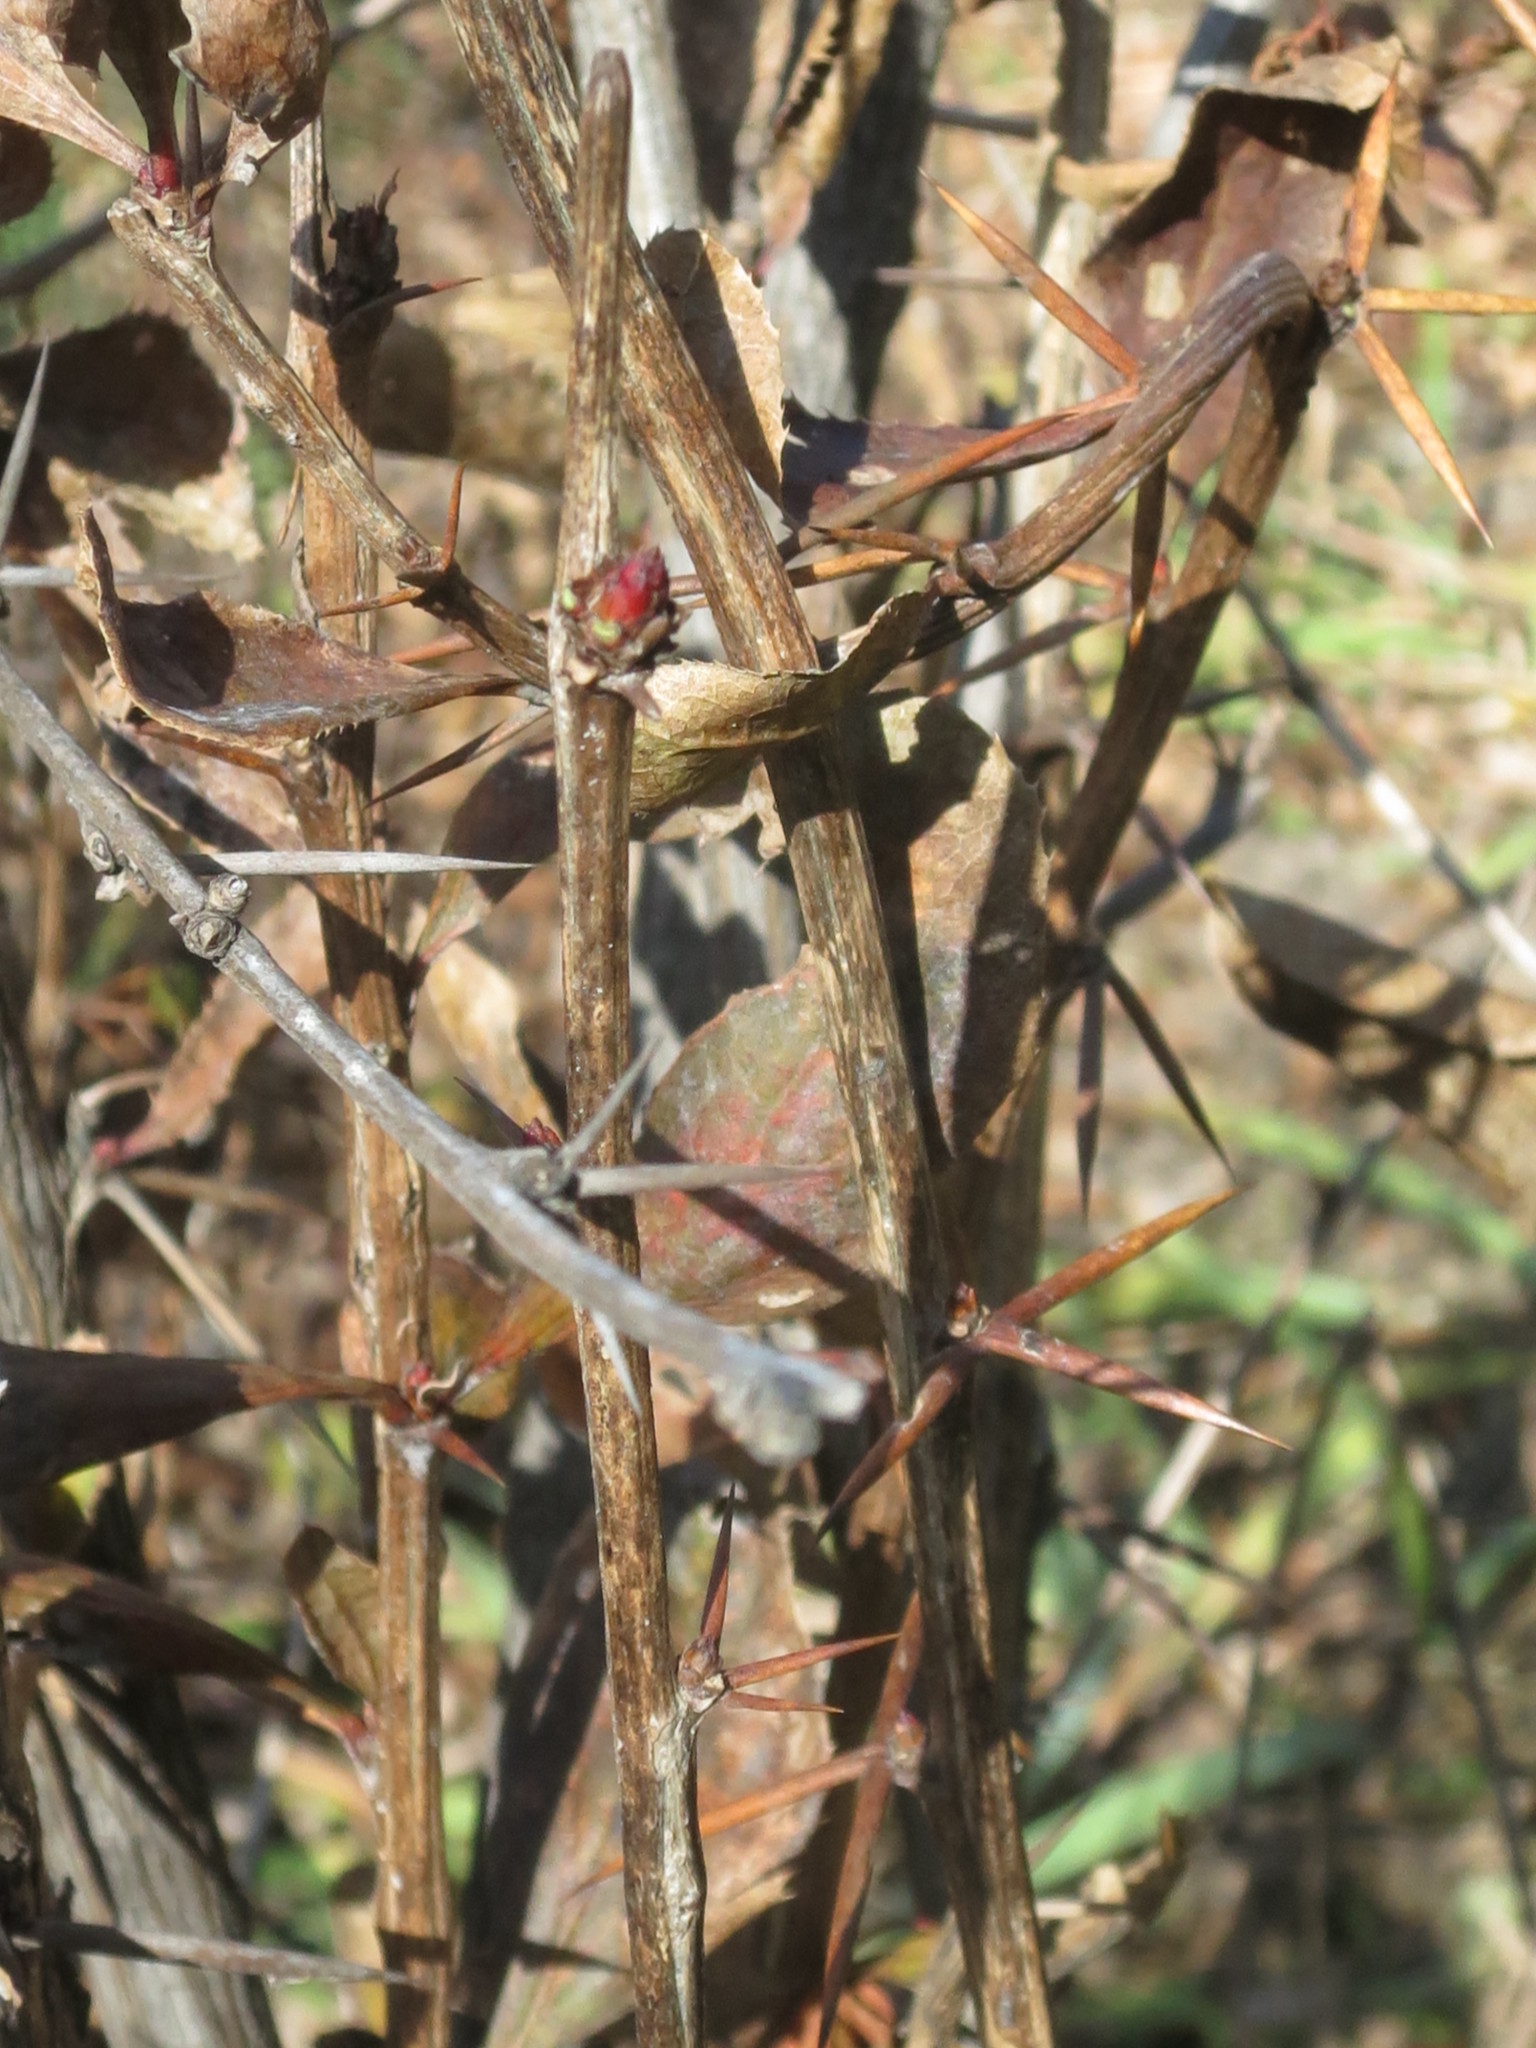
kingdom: Plantae
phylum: Tracheophyta
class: Magnoliopsida
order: Ranunculales
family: Berberidaceae
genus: Berberis
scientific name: Berberis amurensis
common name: Amur barberry
